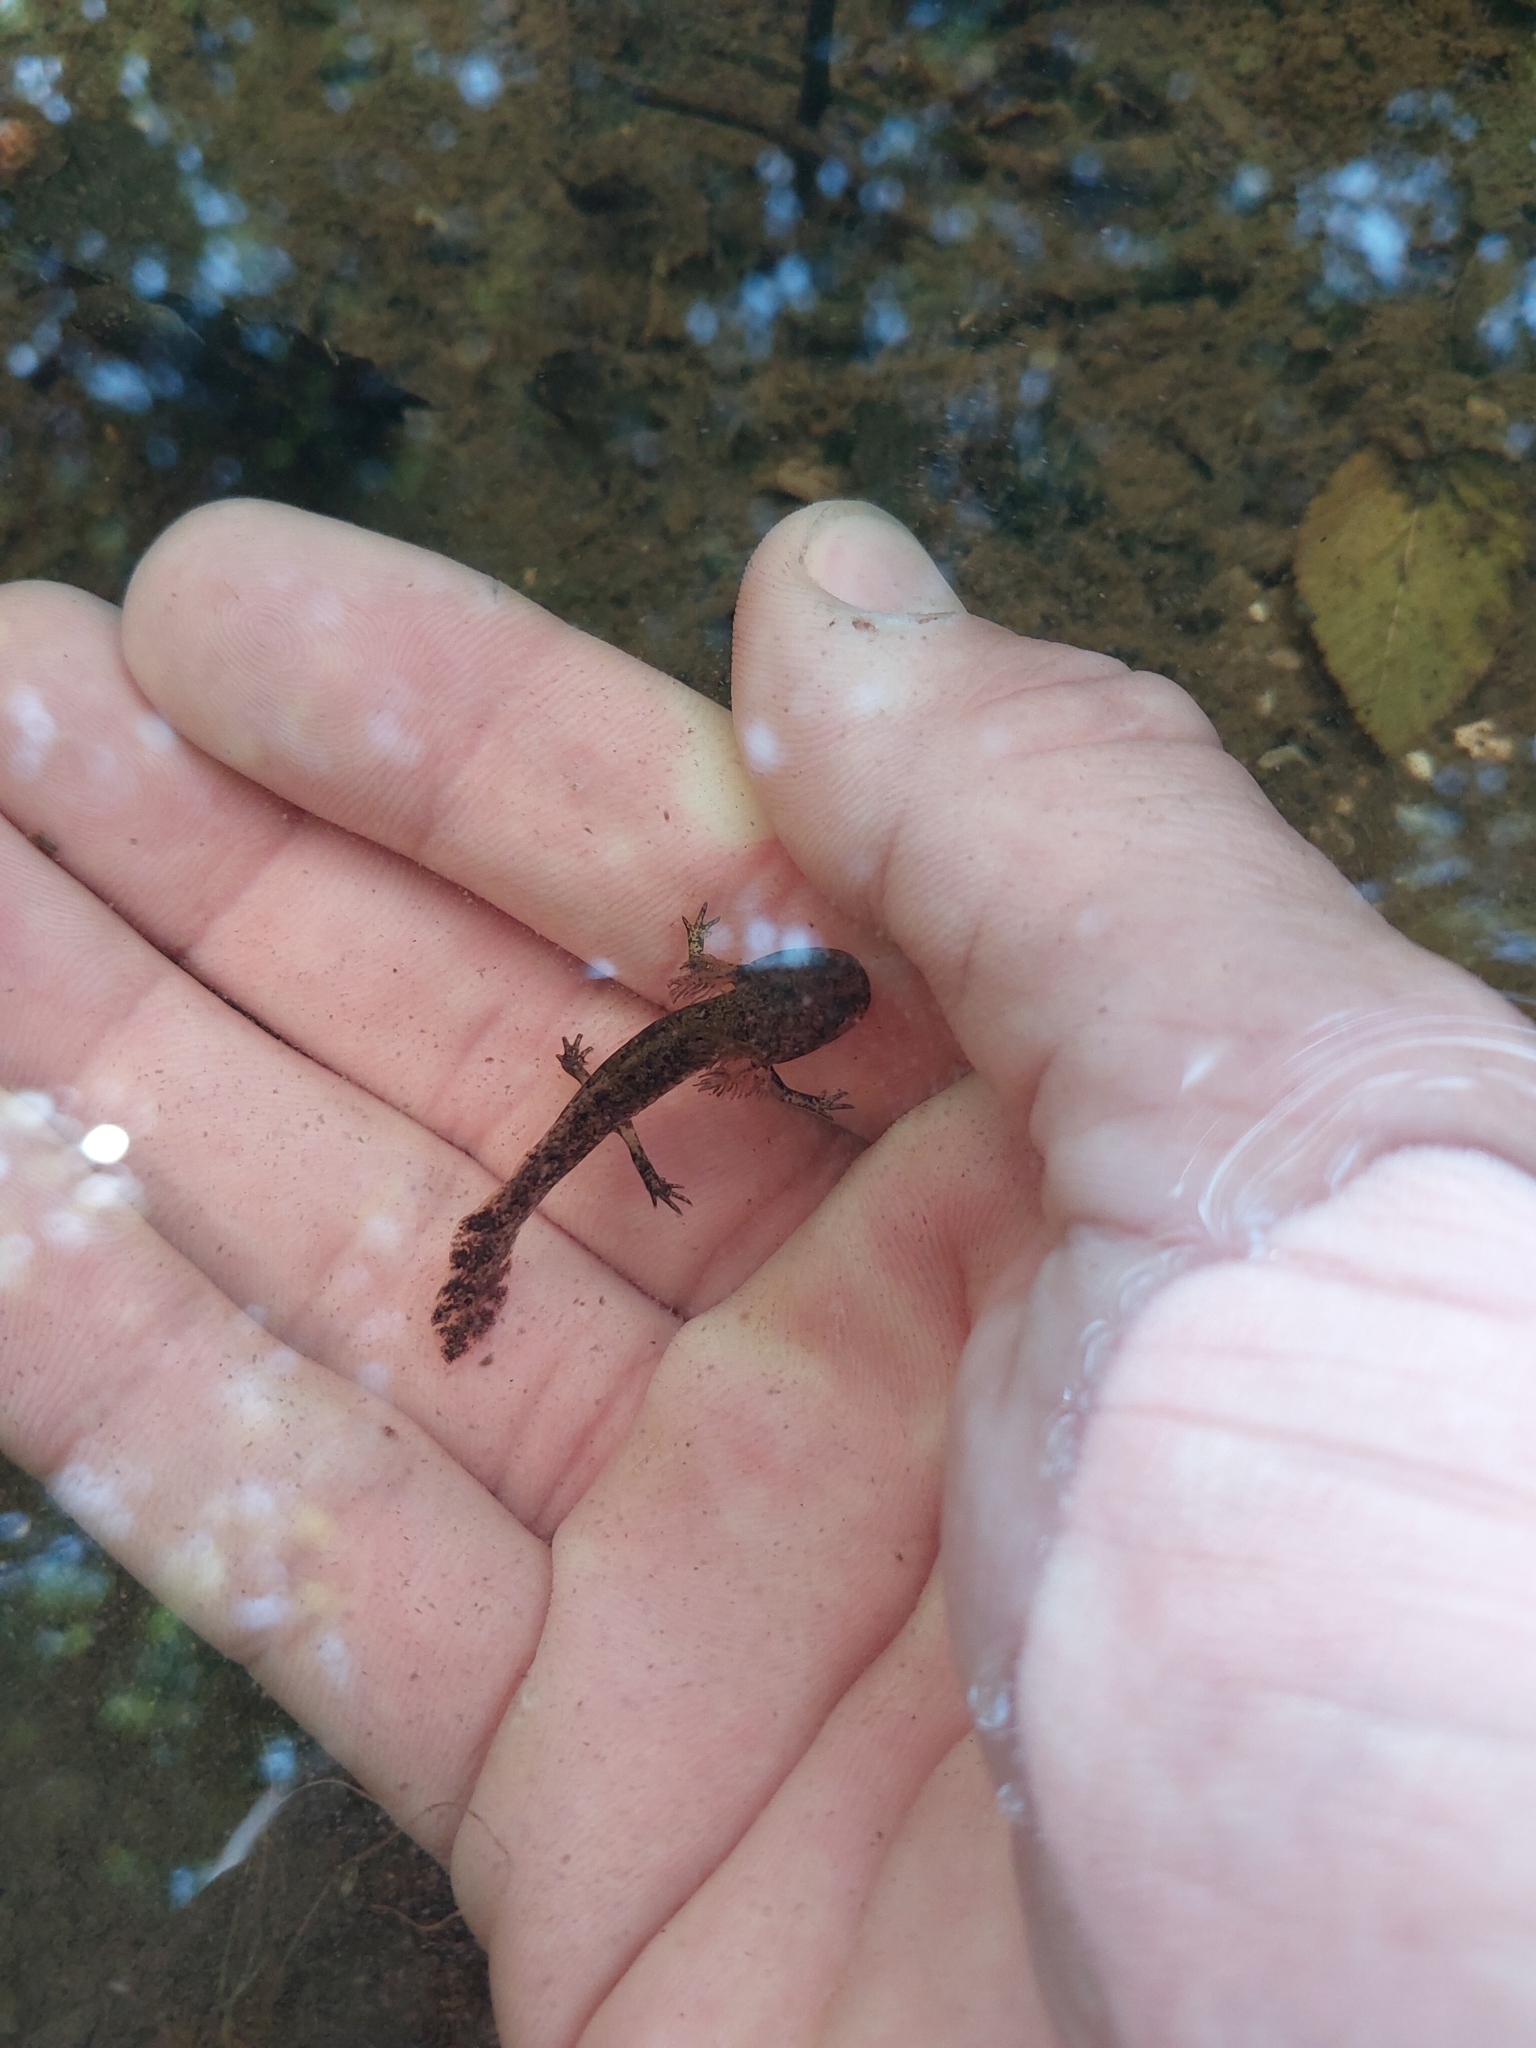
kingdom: Animalia
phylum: Chordata
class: Amphibia
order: Caudata
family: Salamandridae
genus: Salamandra
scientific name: Salamandra salamandra
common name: Fire salamander
